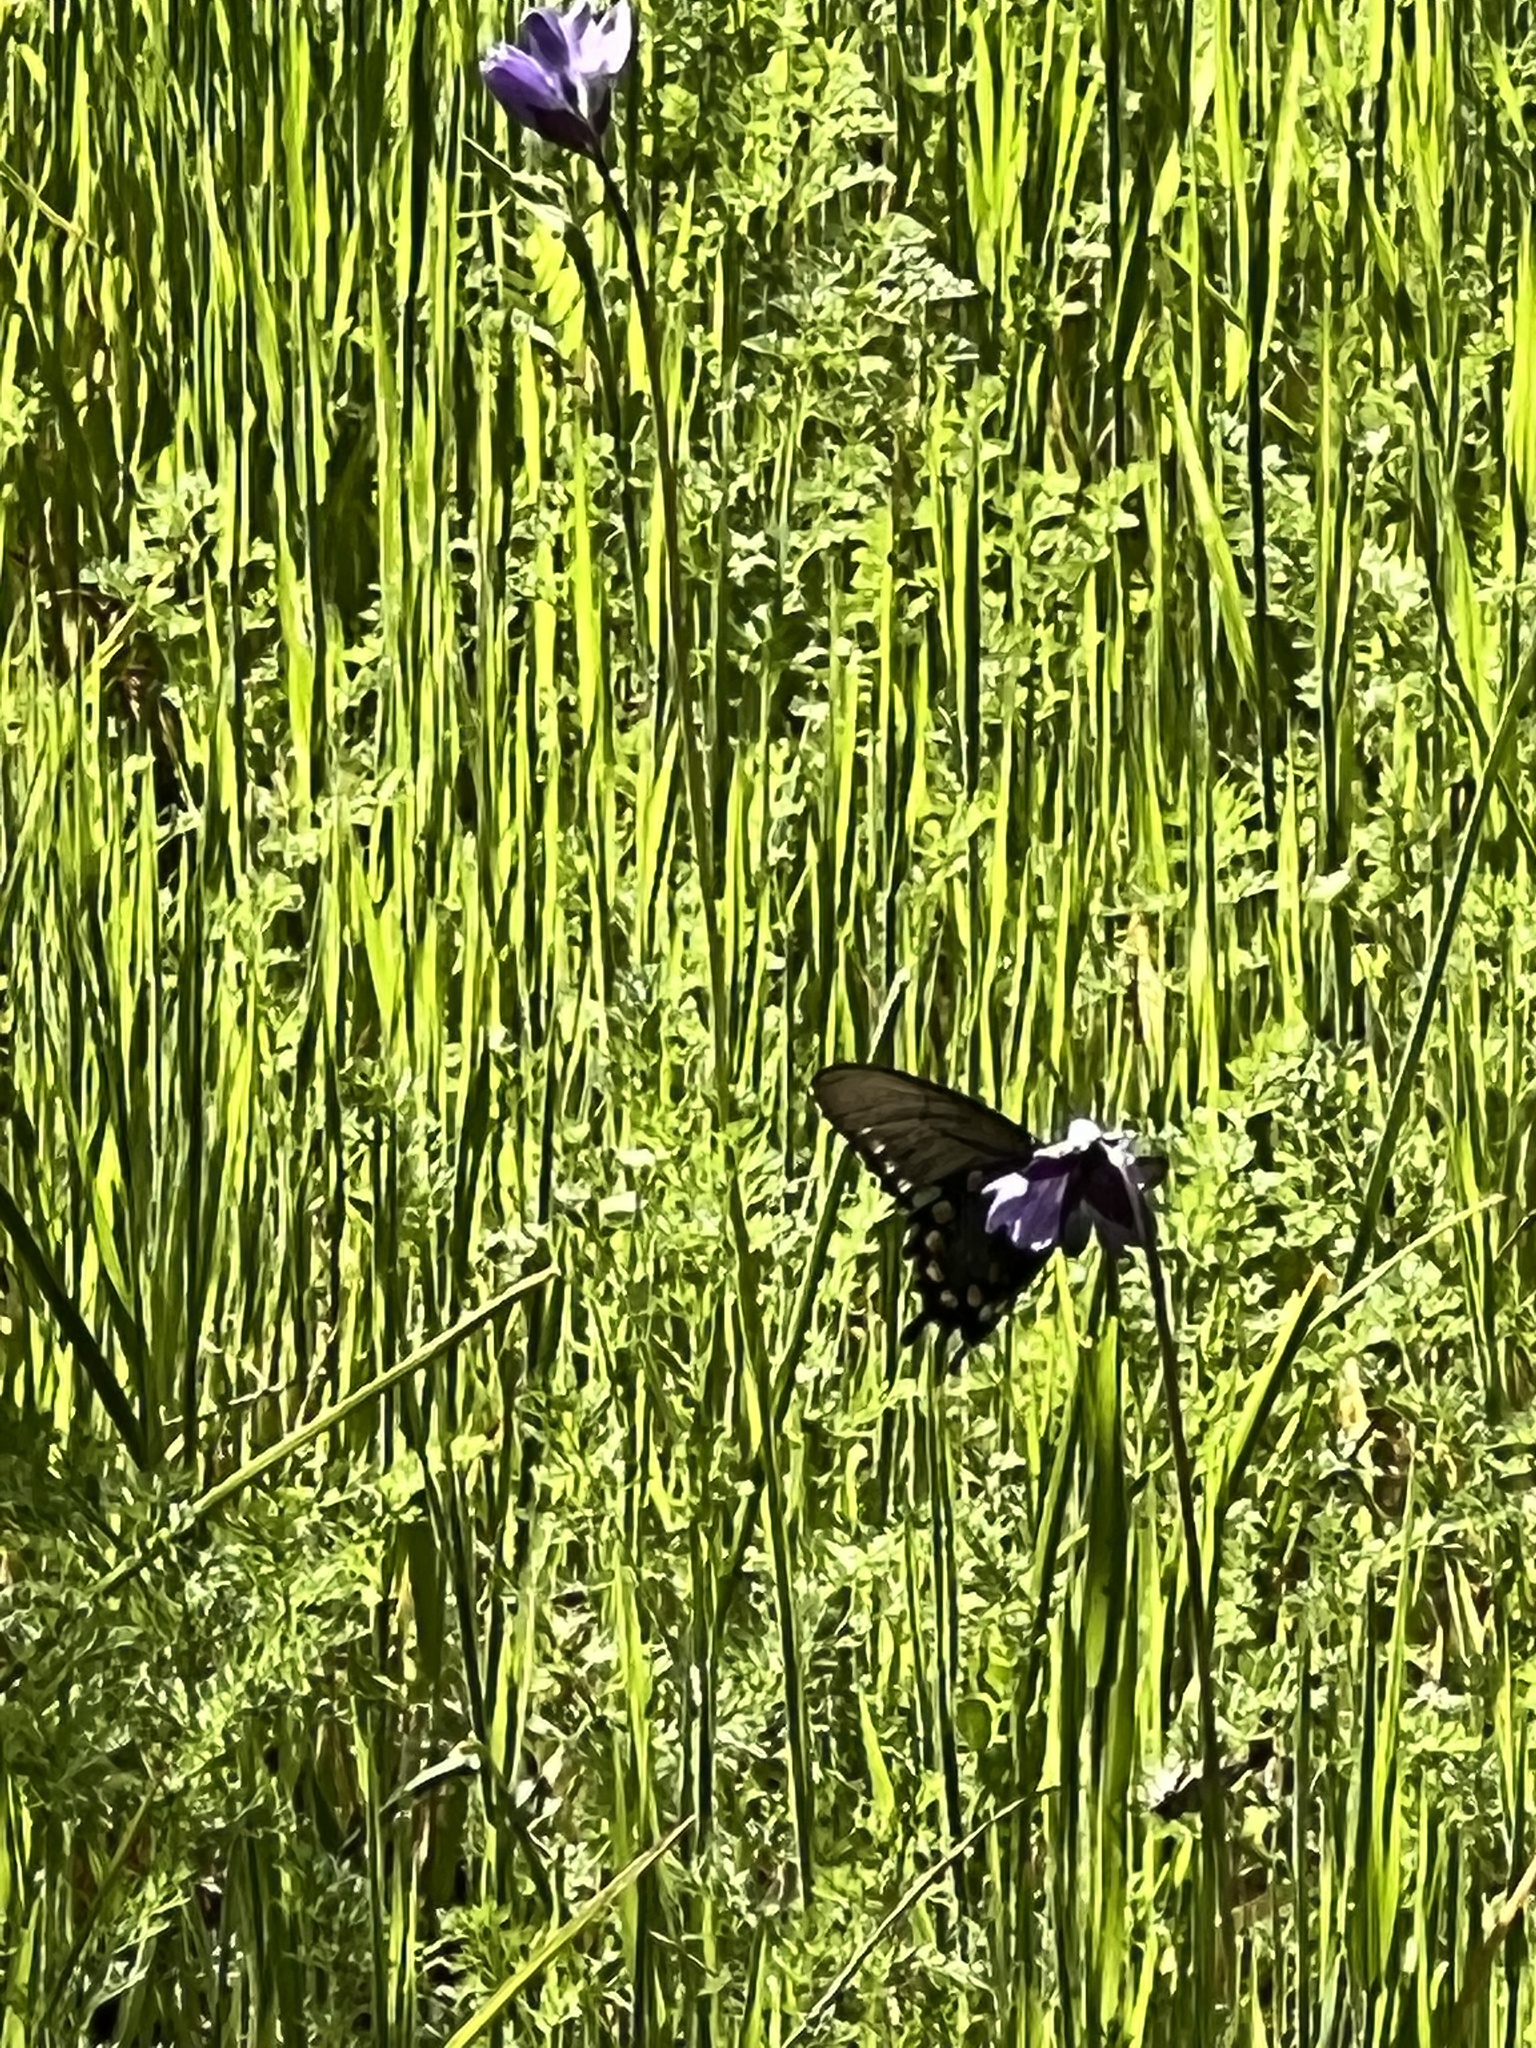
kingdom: Animalia
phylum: Arthropoda
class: Insecta
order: Lepidoptera
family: Papilionidae
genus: Battus
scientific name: Battus philenor
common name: Pipevine swallowtail
